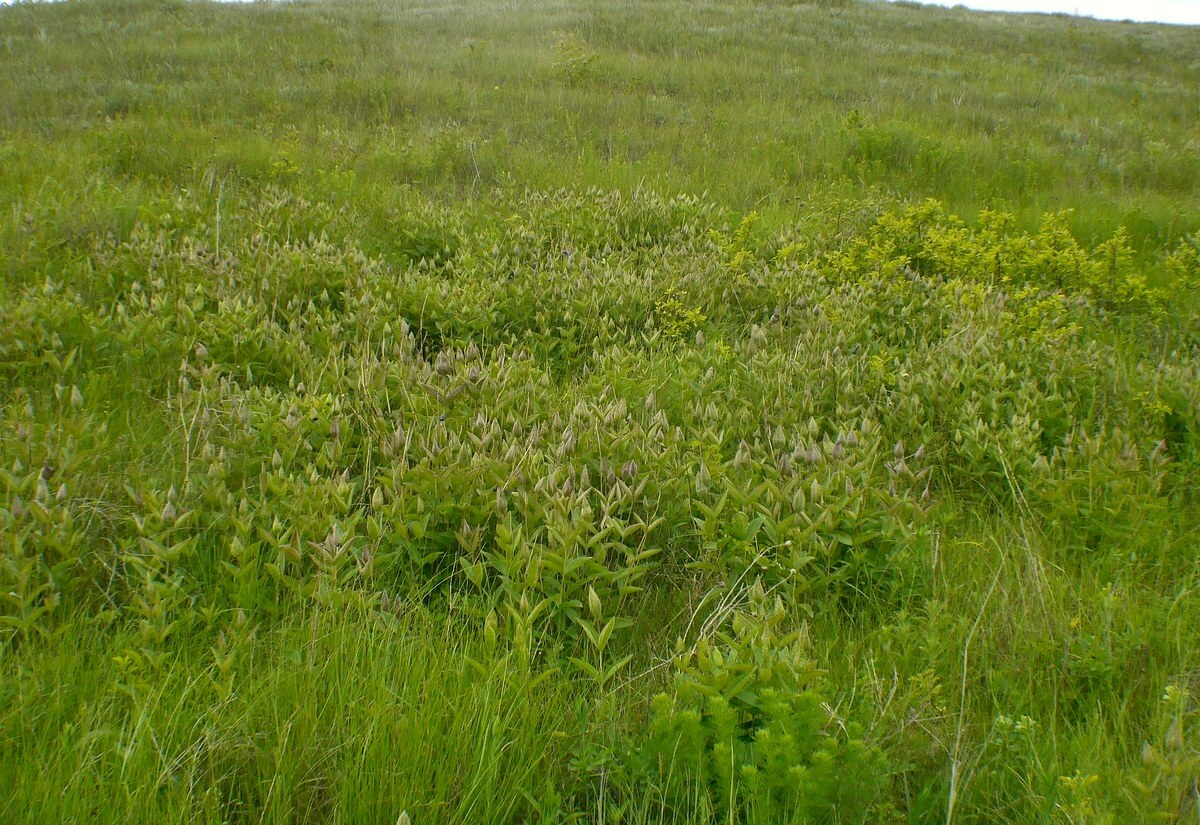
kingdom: Plantae
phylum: Tracheophyta
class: Magnoliopsida
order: Ranunculales
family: Ranunculaceae
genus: Clematis
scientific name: Clematis integrifolia
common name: Solitary clematis
